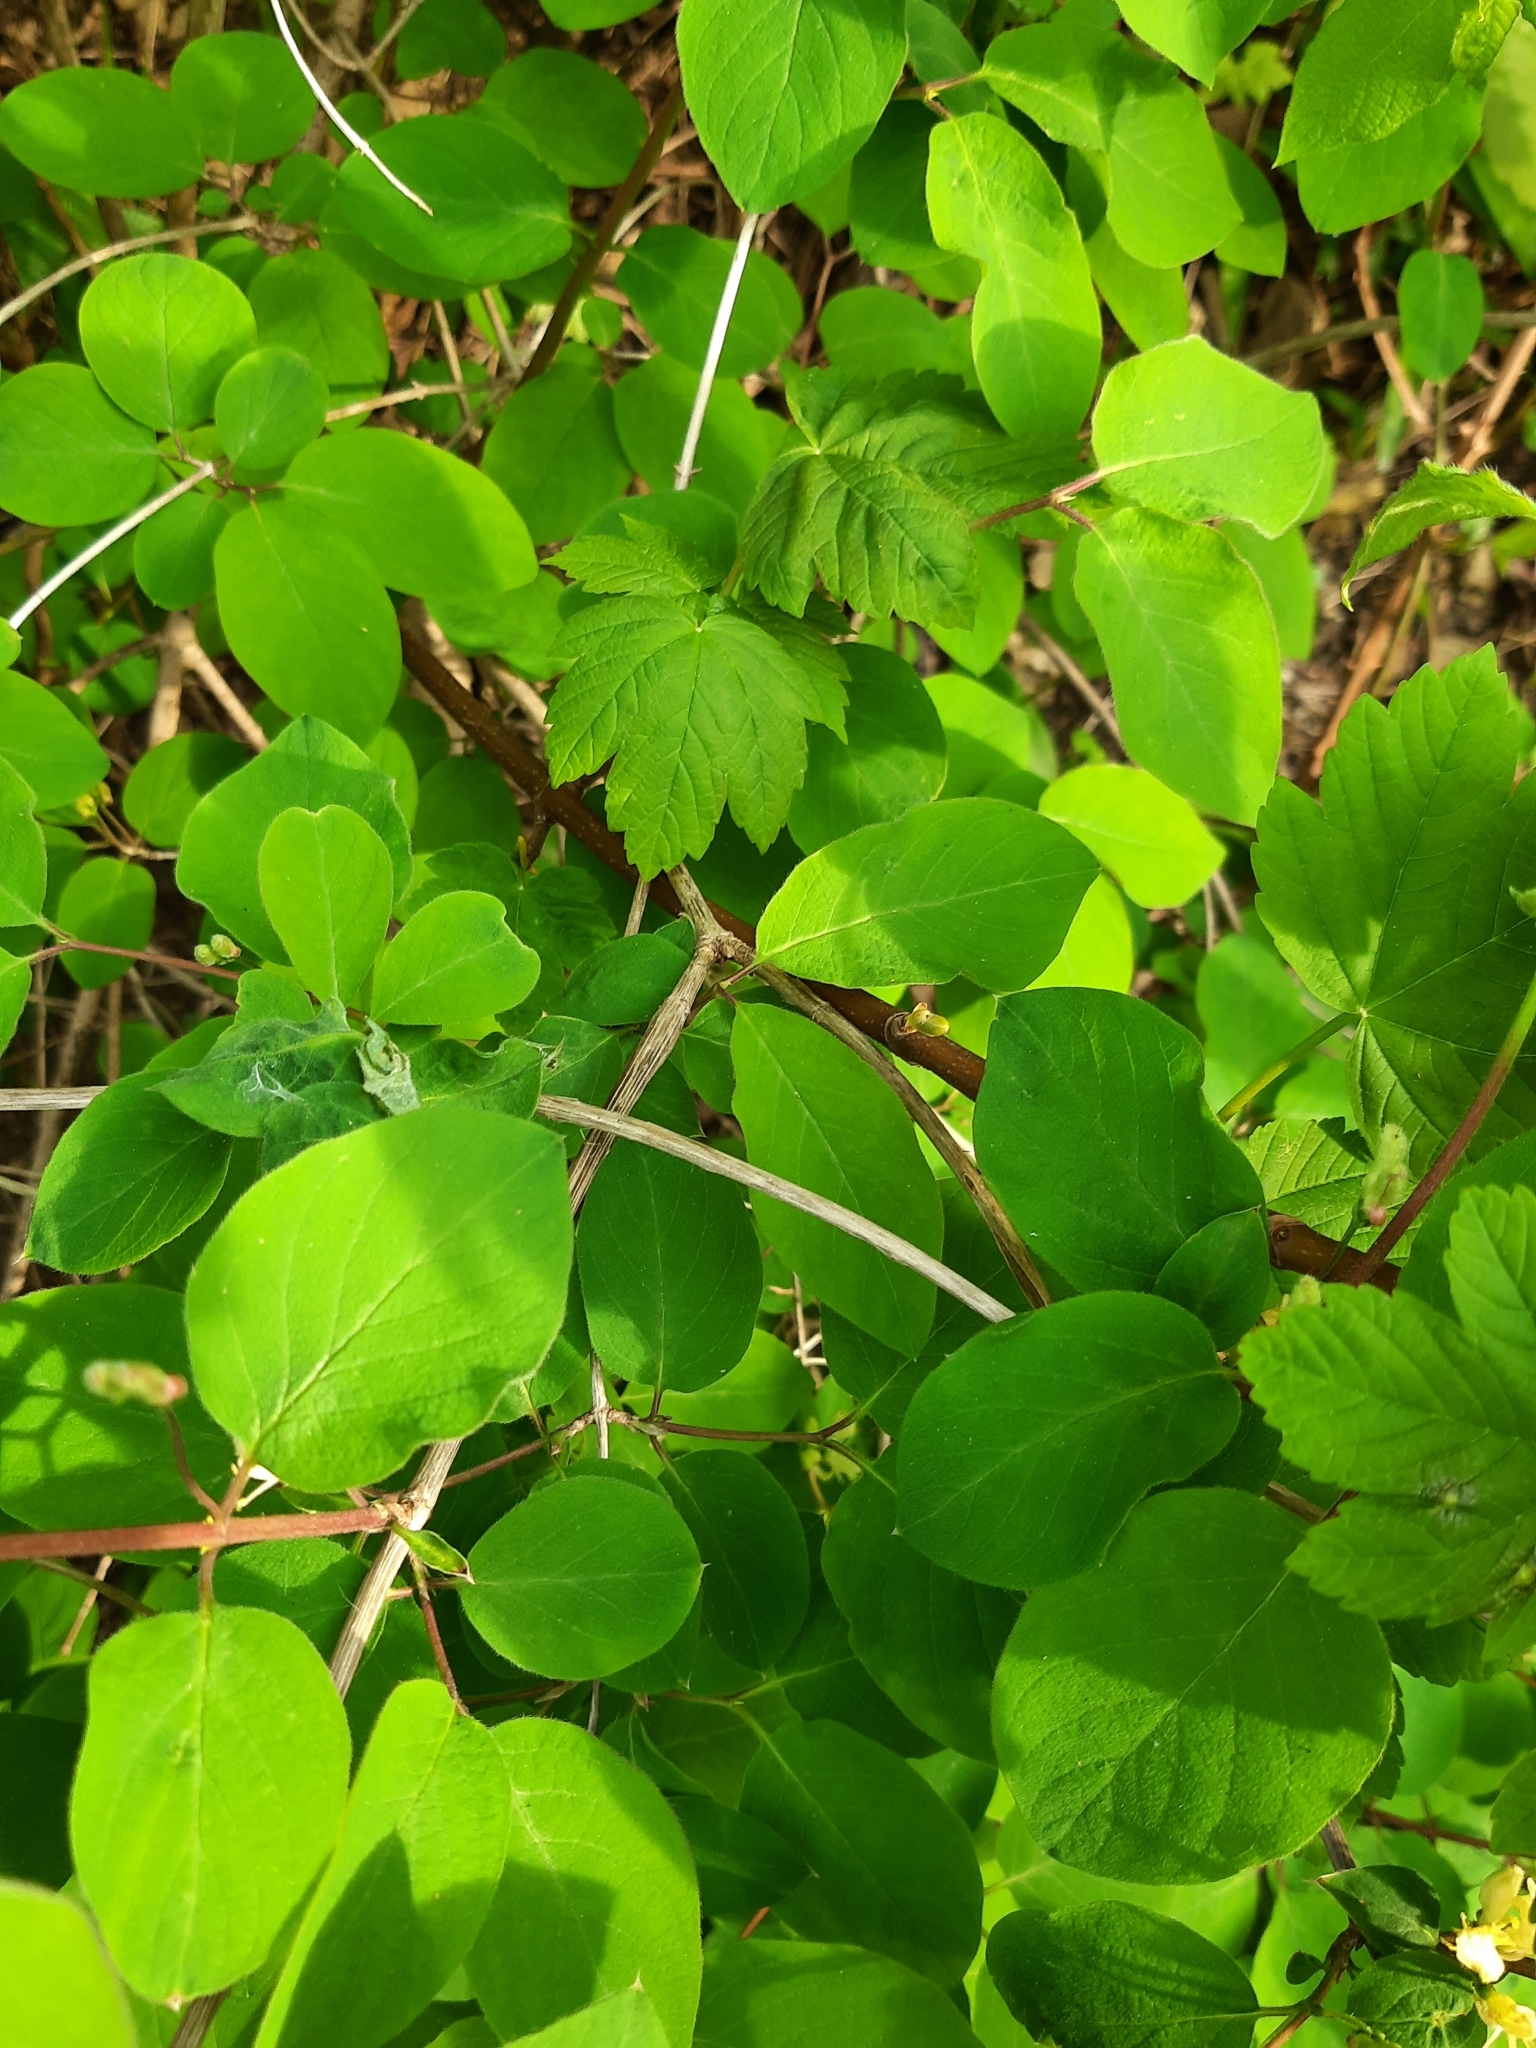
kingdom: Plantae
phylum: Tracheophyta
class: Magnoliopsida
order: Dipsacales
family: Caprifoliaceae
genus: Lonicera
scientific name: Lonicera xylosteum
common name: Fly honeysuckle
